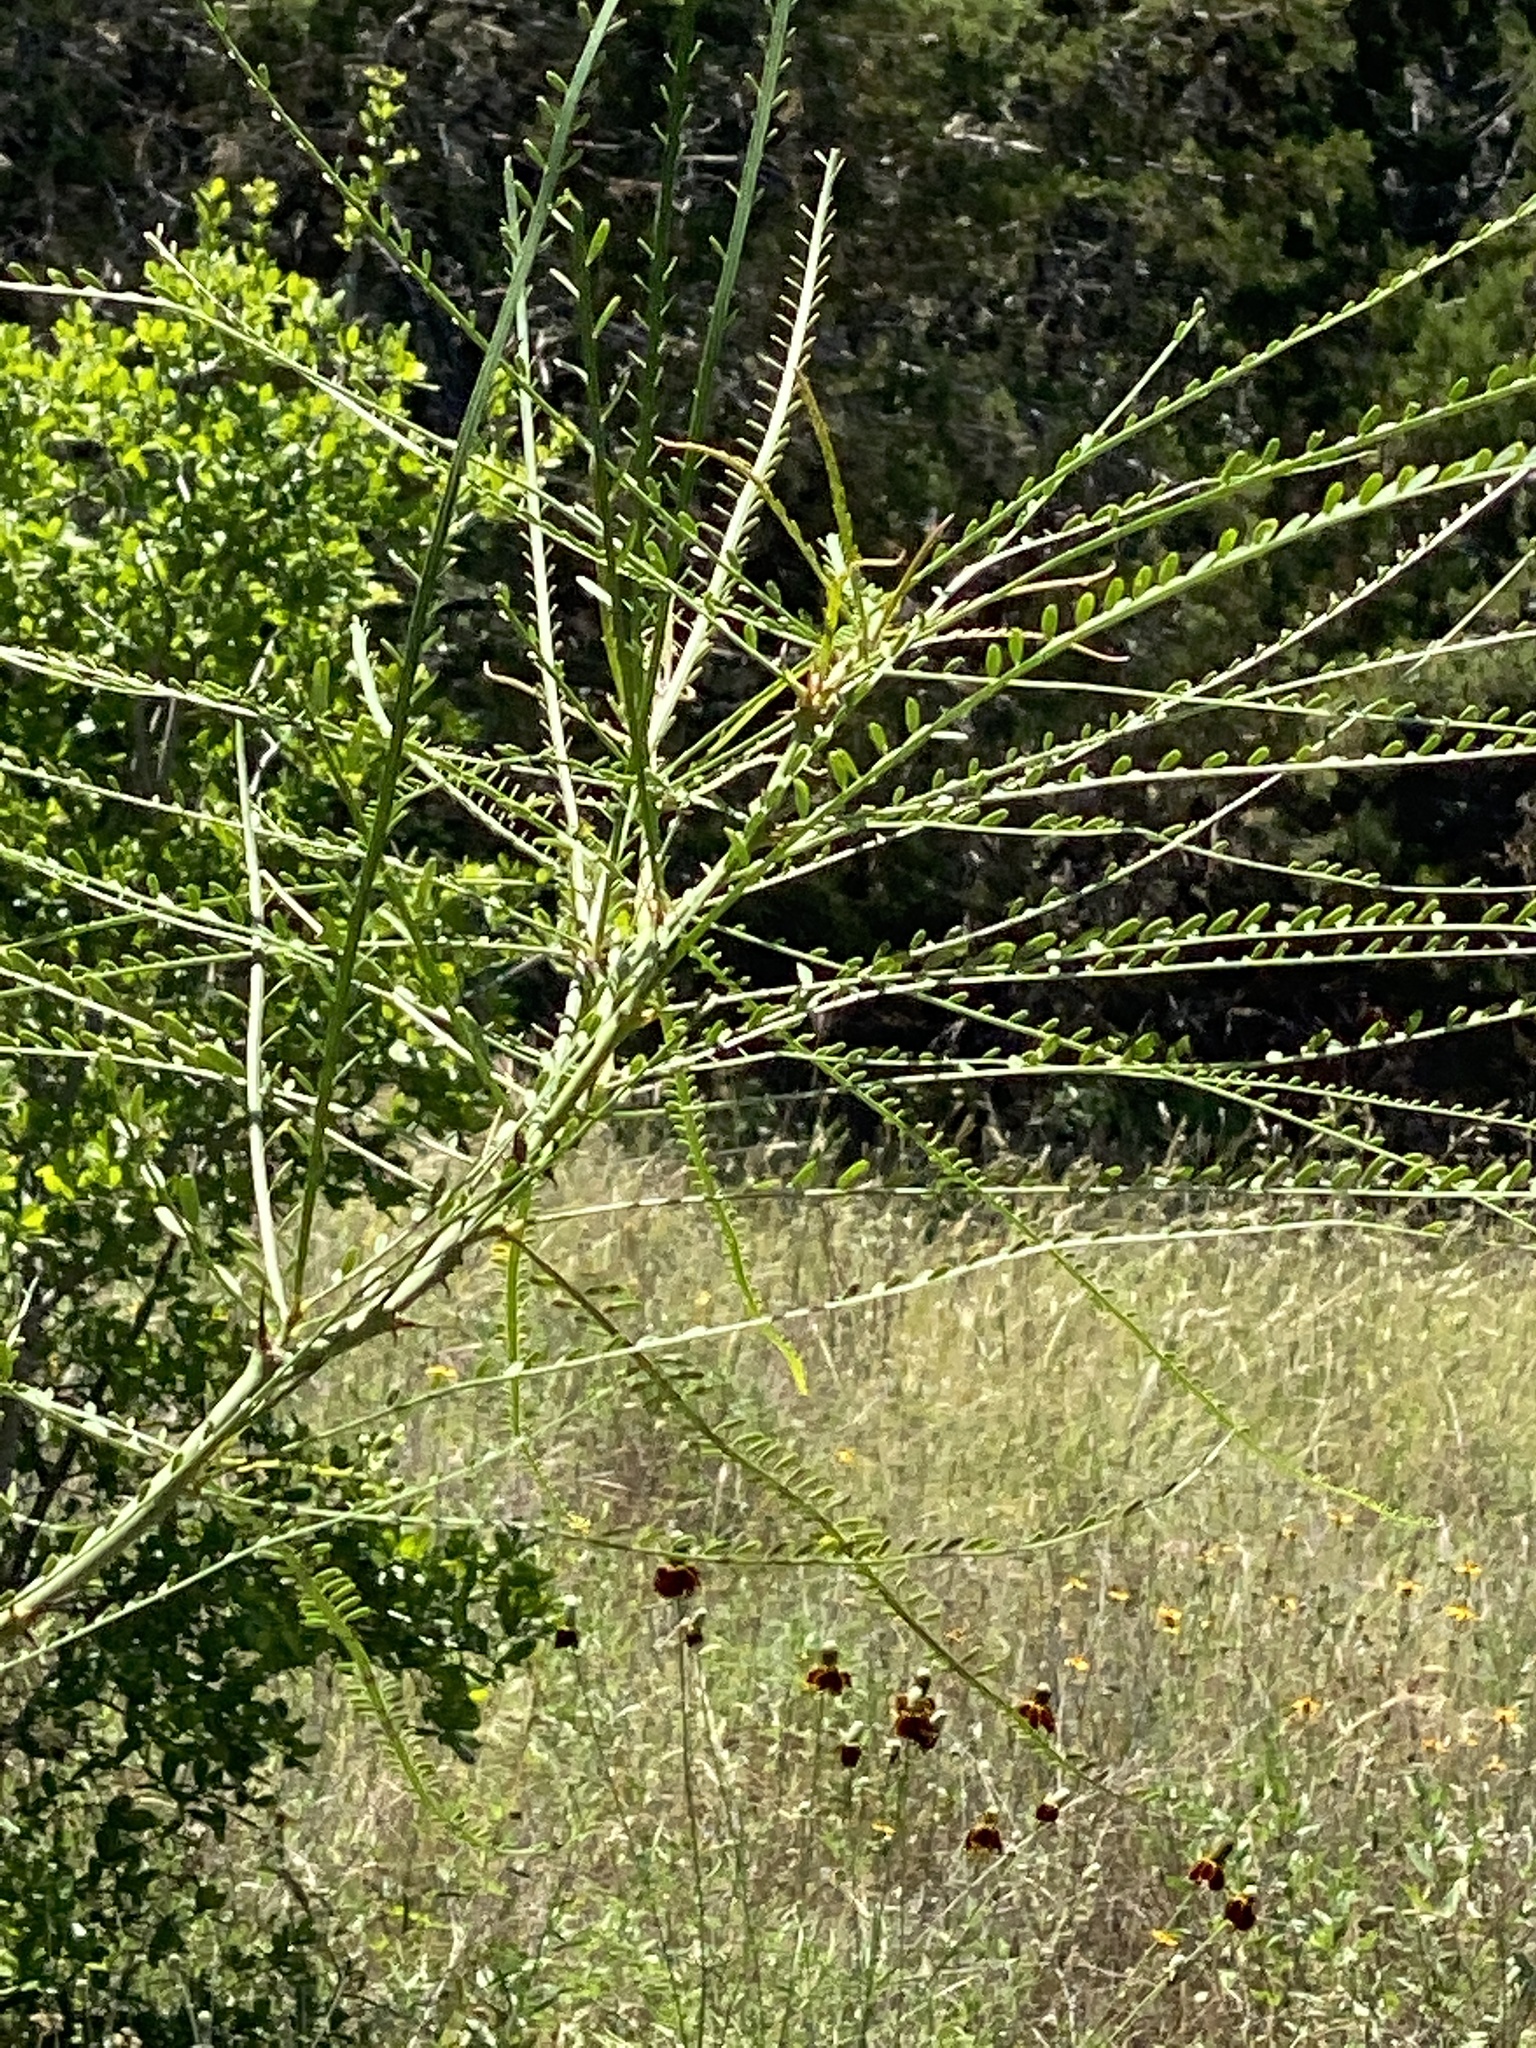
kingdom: Plantae
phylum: Tracheophyta
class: Magnoliopsida
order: Fabales
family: Fabaceae
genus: Parkinsonia
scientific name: Parkinsonia aculeata
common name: Jerusalem thorn
